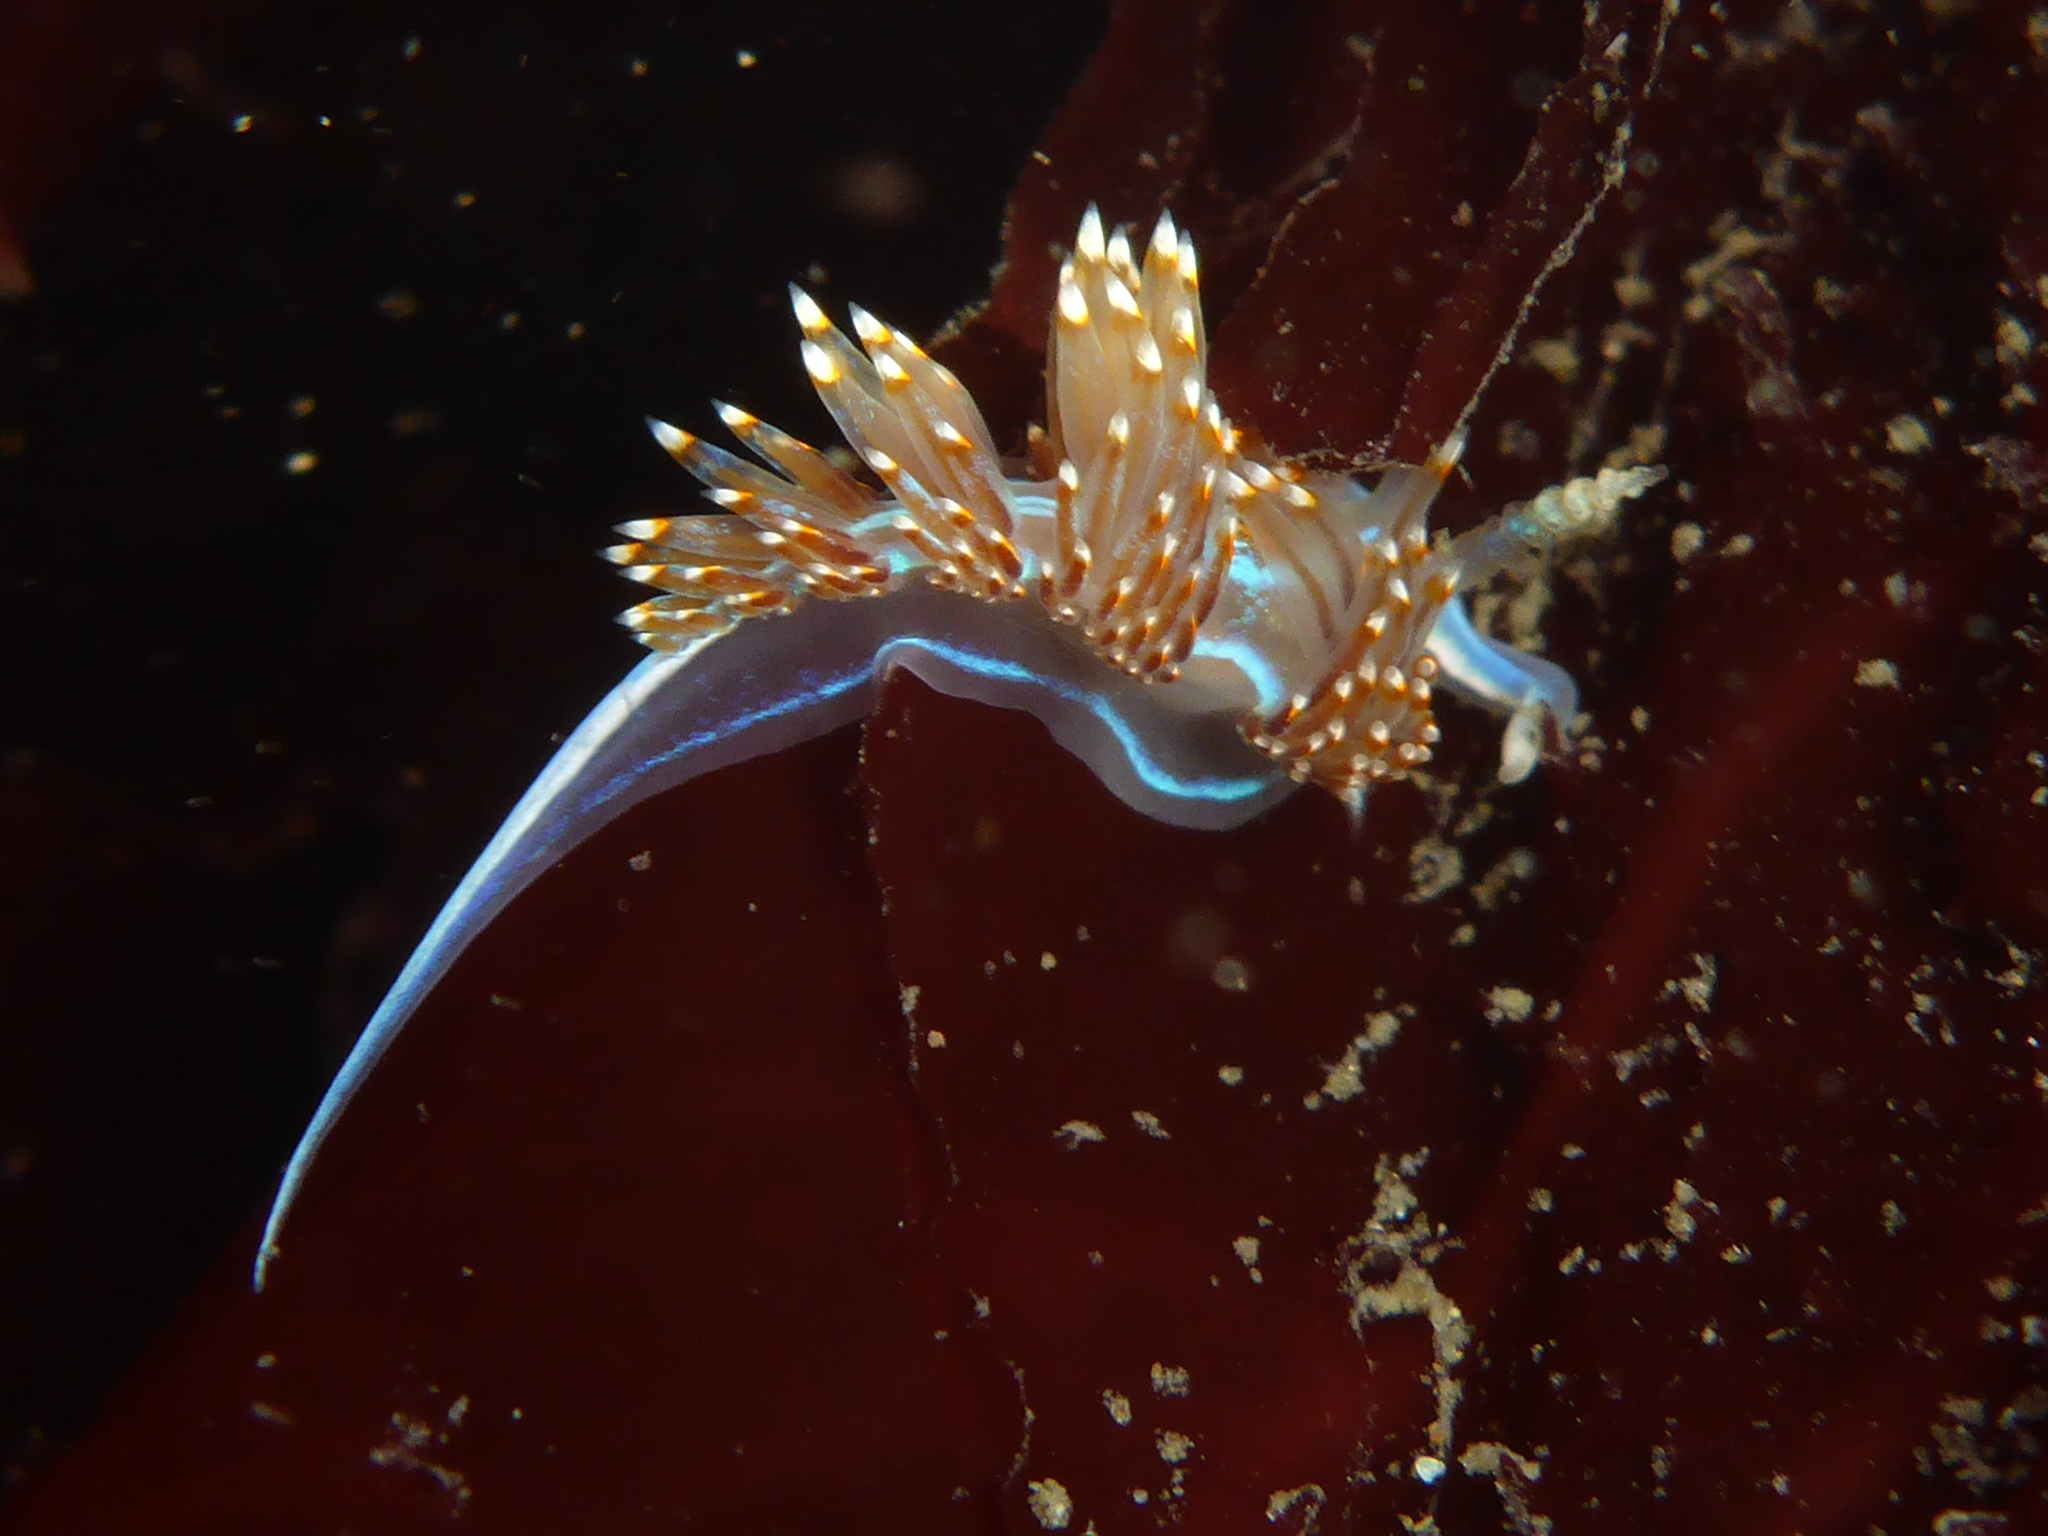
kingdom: Animalia
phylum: Mollusca
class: Gastropoda
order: Nudibranchia
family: Myrrhinidae
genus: Hermissenda
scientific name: Hermissenda crassicornis
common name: Hermissenda
